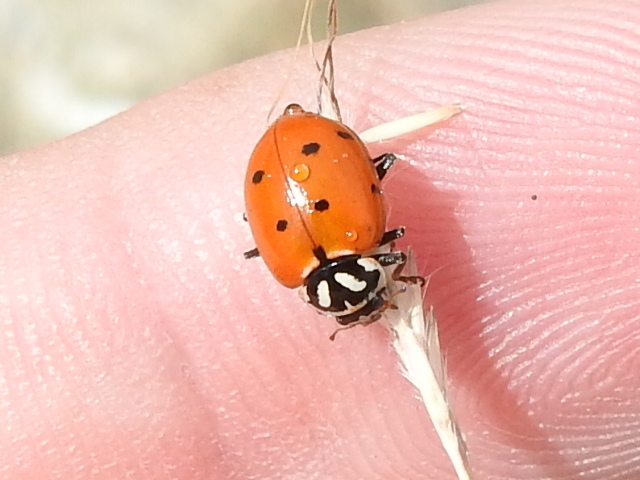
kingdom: Animalia
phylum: Arthropoda
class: Insecta
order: Coleoptera
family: Coccinellidae
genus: Hippodamia
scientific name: Hippodamia convergens
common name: Convergent lady beetle
